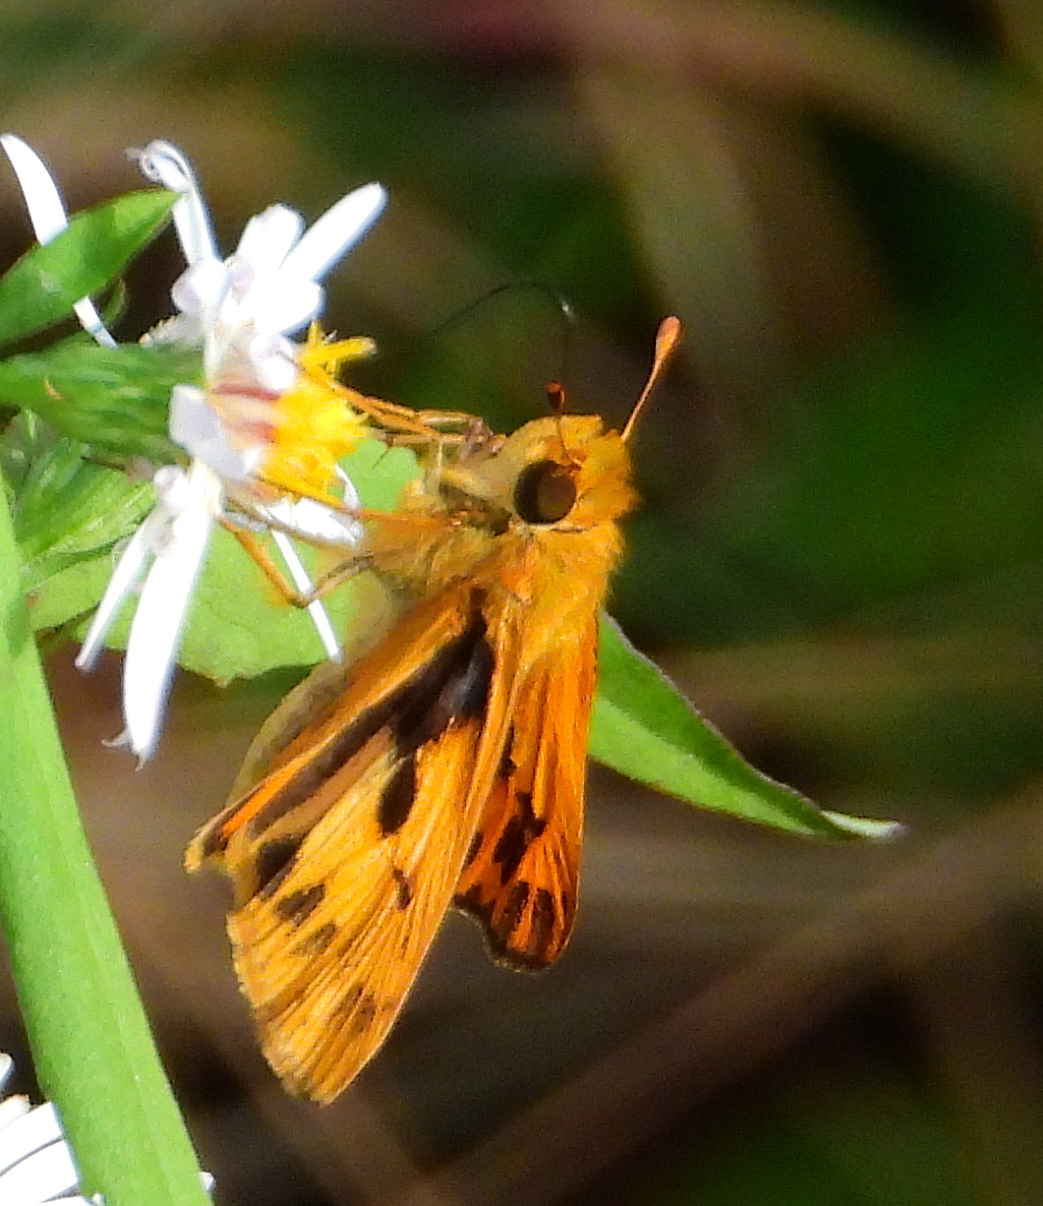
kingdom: Animalia
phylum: Arthropoda
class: Insecta
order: Lepidoptera
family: Hesperiidae
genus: Hylephila
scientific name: Hylephila phyleus
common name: Fiery skipper
